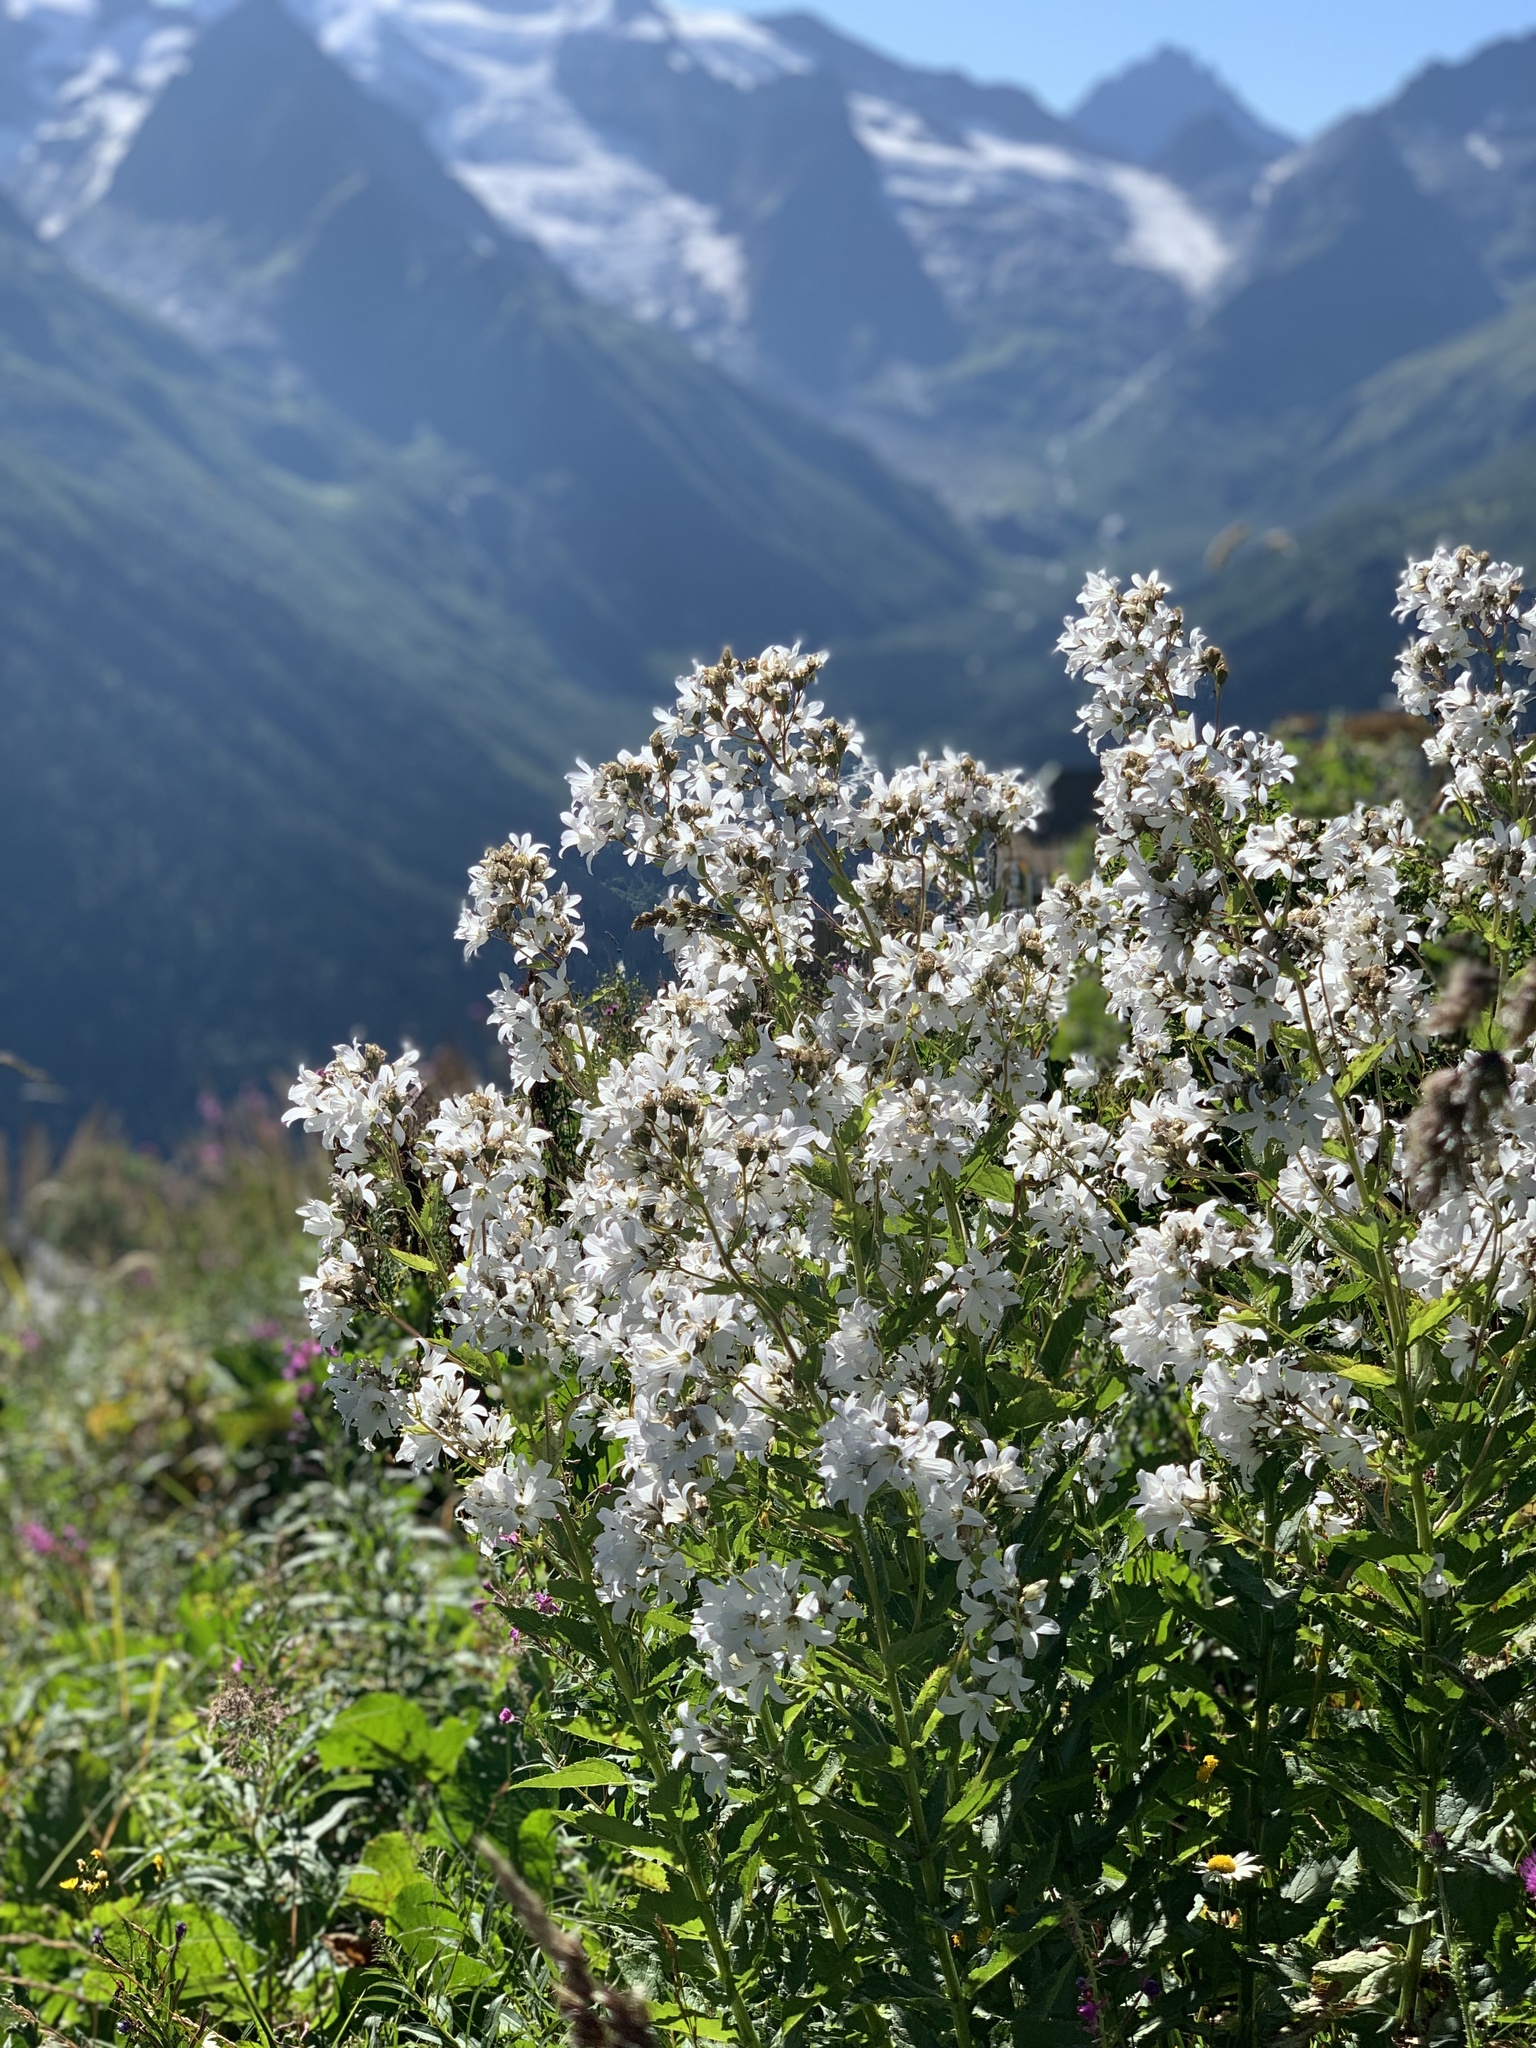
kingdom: Plantae
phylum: Tracheophyta
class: Magnoliopsida
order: Asterales
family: Campanulaceae
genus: Campanula
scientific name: Campanula lactiflora
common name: Milky bellflower
